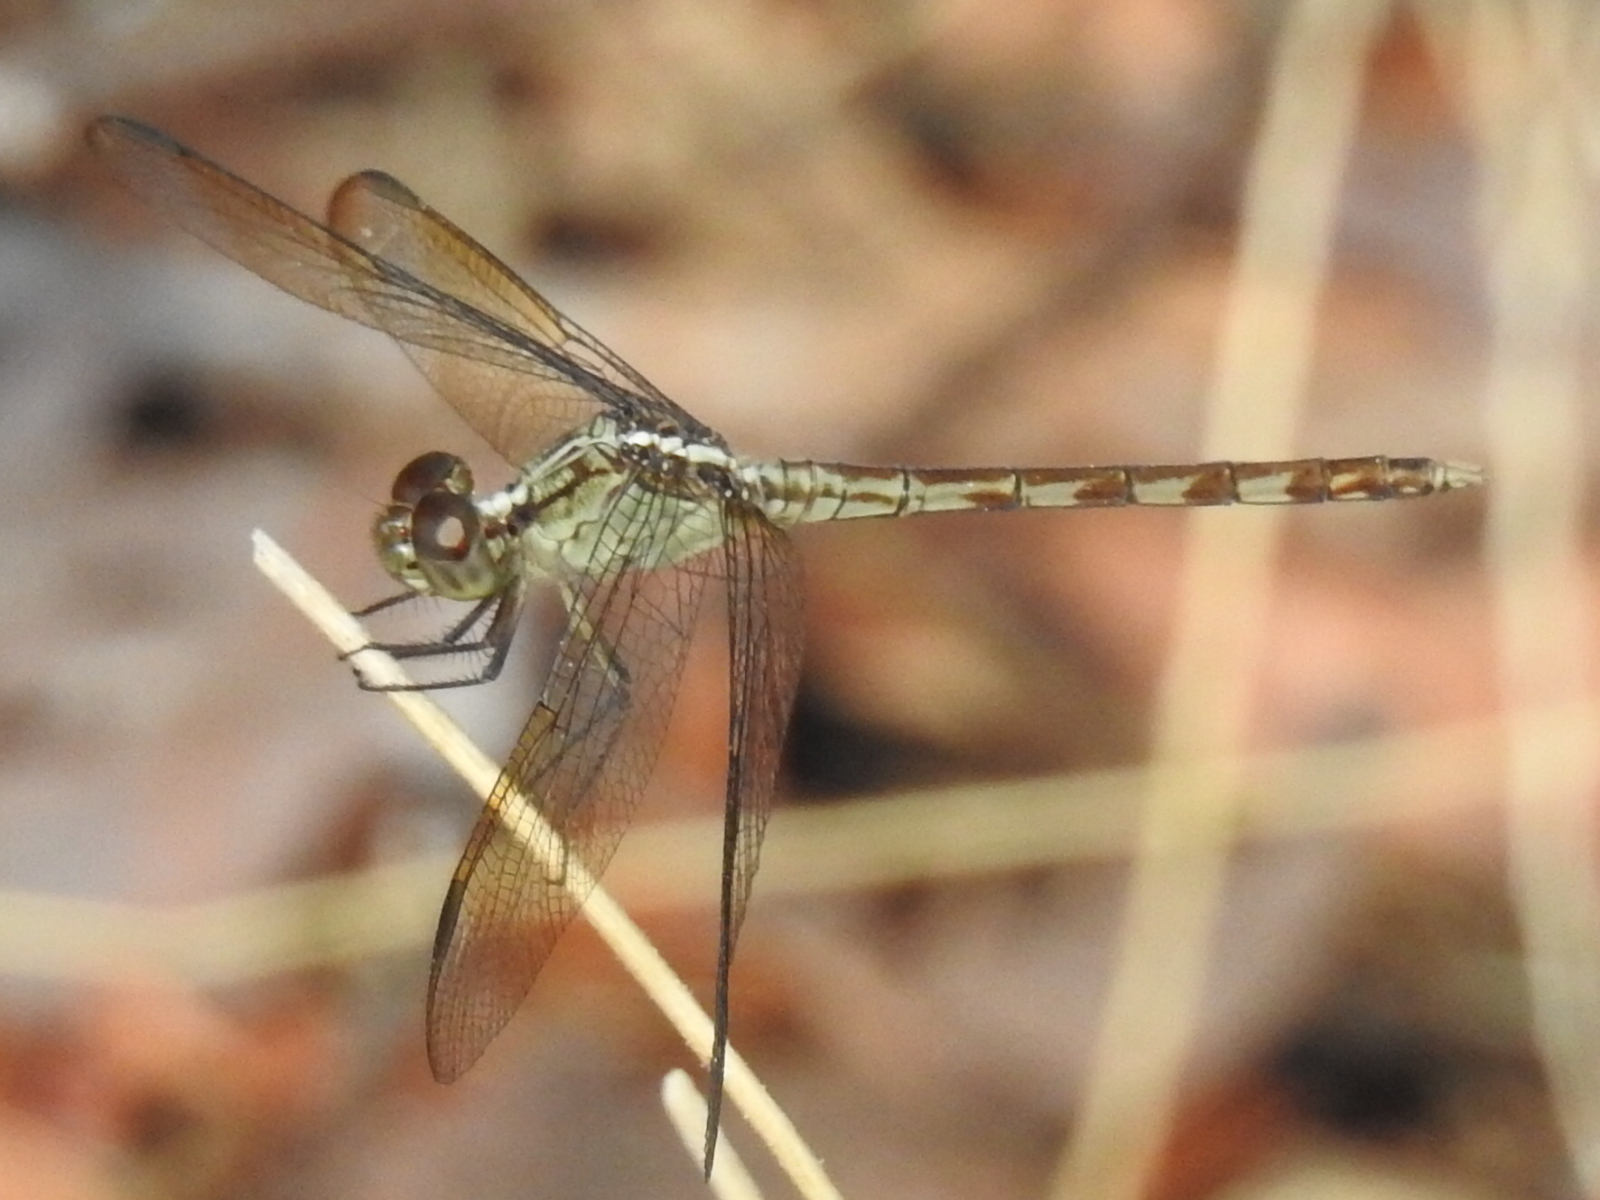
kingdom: Animalia
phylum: Arthropoda
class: Insecta
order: Odonata
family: Libellulidae
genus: Erythrodiplax
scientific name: Erythrodiplax umbrata
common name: Band-winged dragonlet
